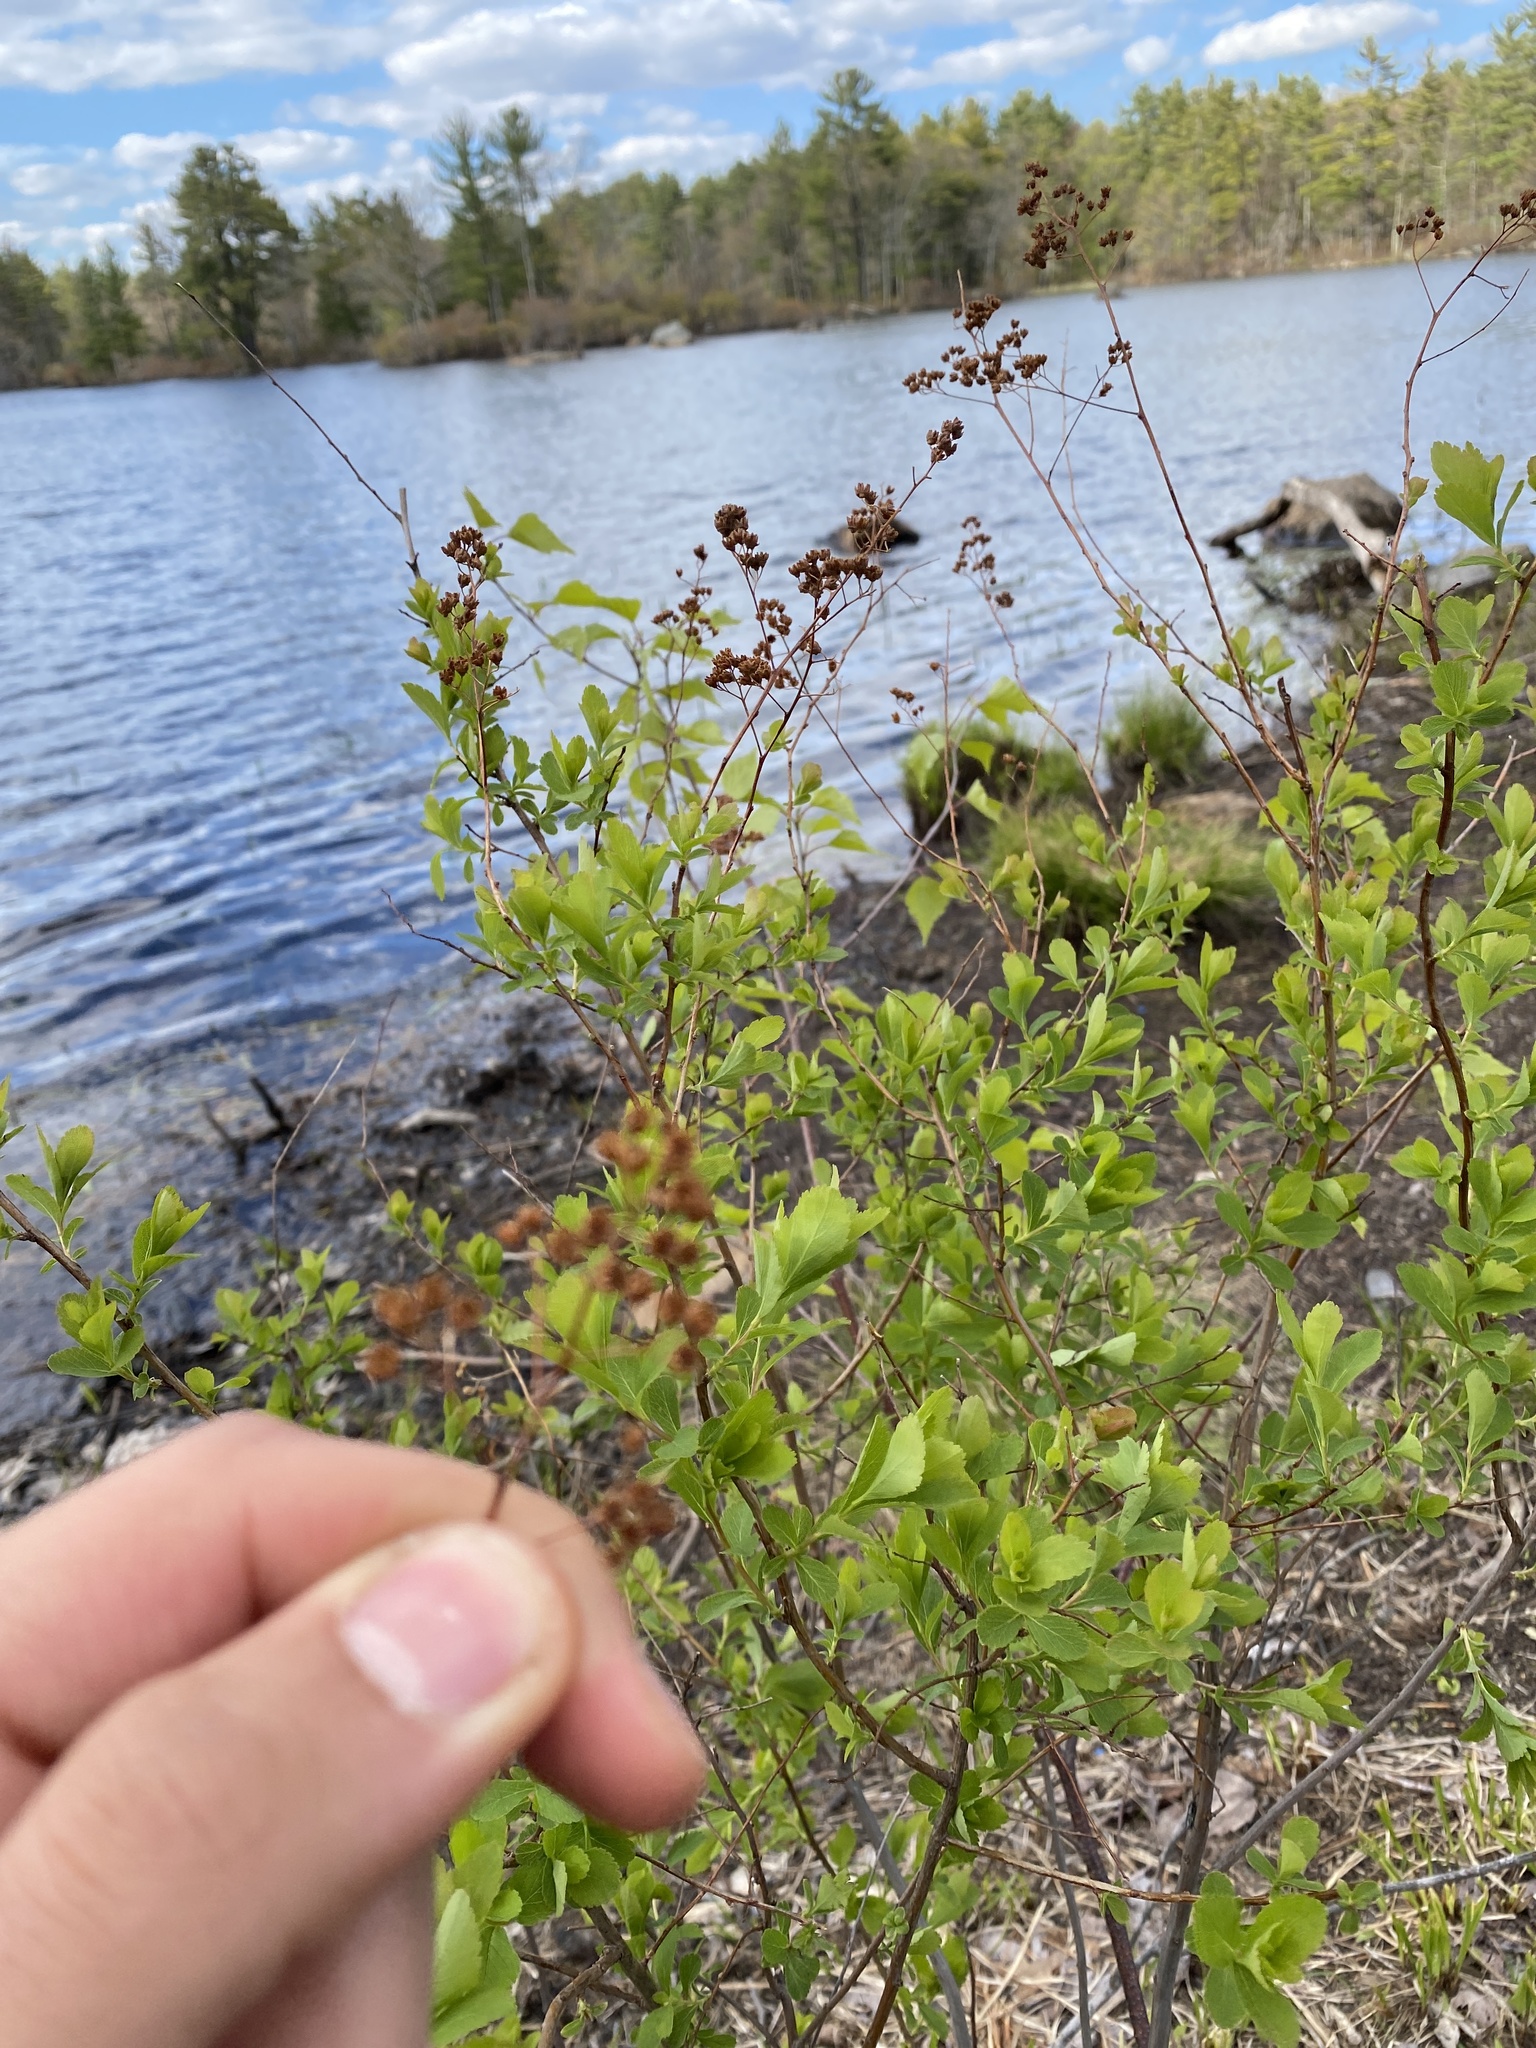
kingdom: Plantae
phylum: Tracheophyta
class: Magnoliopsida
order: Rosales
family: Rosaceae
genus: Spiraea
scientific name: Spiraea alba
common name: Pale bridewort
